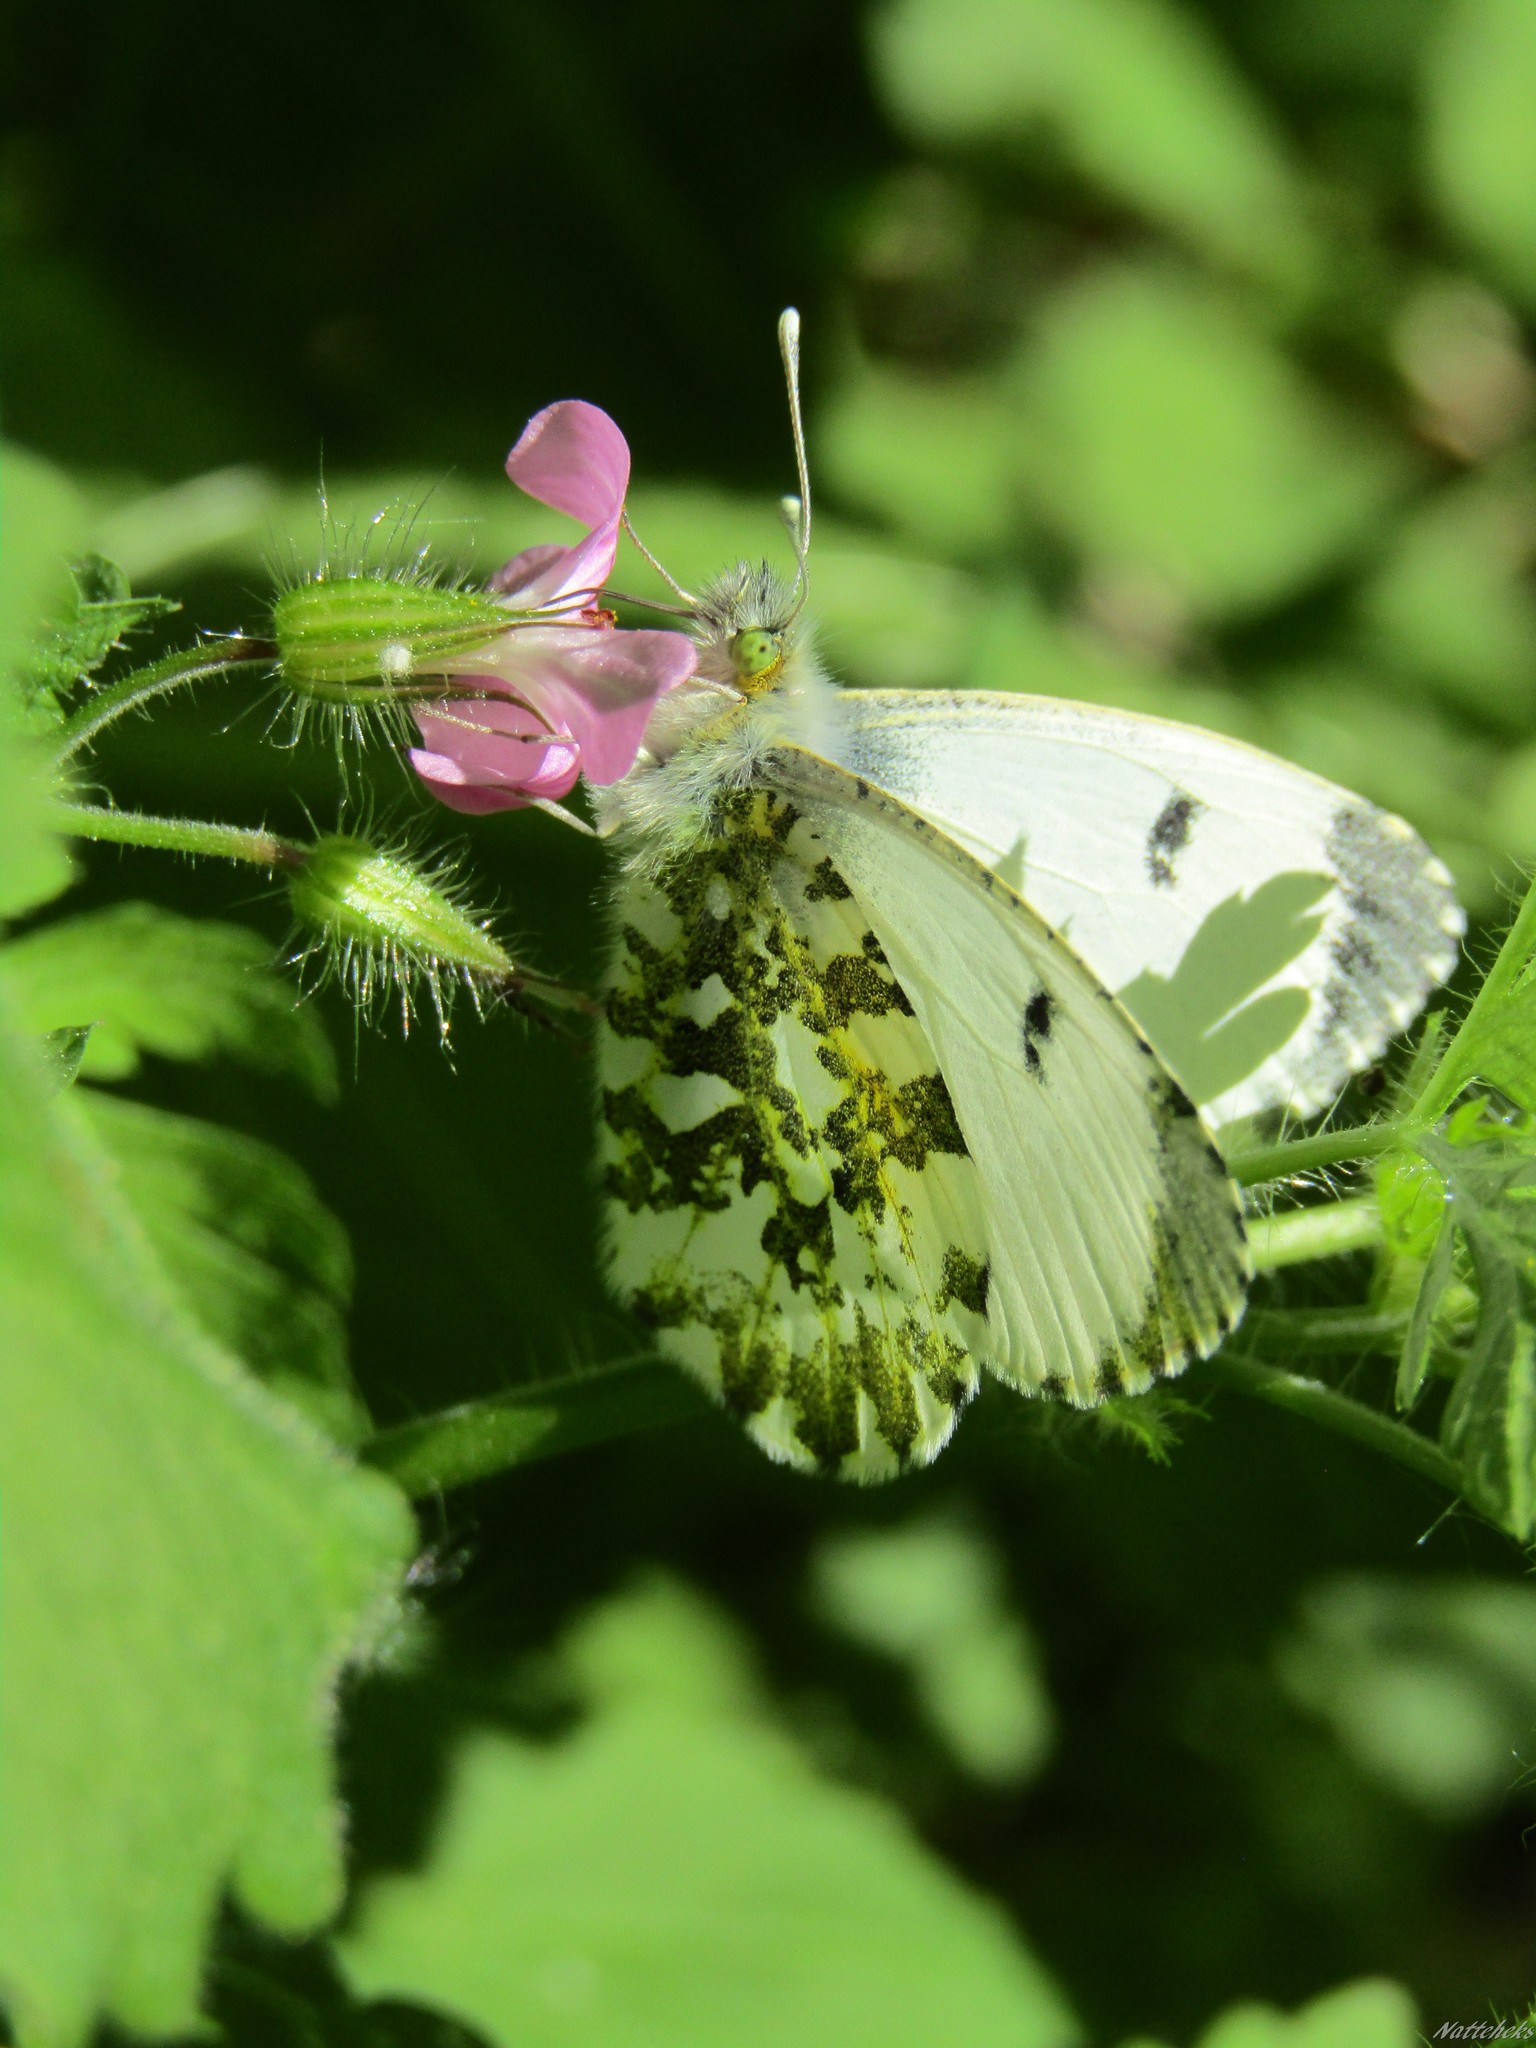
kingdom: Animalia
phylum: Arthropoda
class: Insecta
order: Lepidoptera
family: Pieridae
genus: Anthocharis
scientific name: Anthocharis cardamines
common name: Orange-tip
